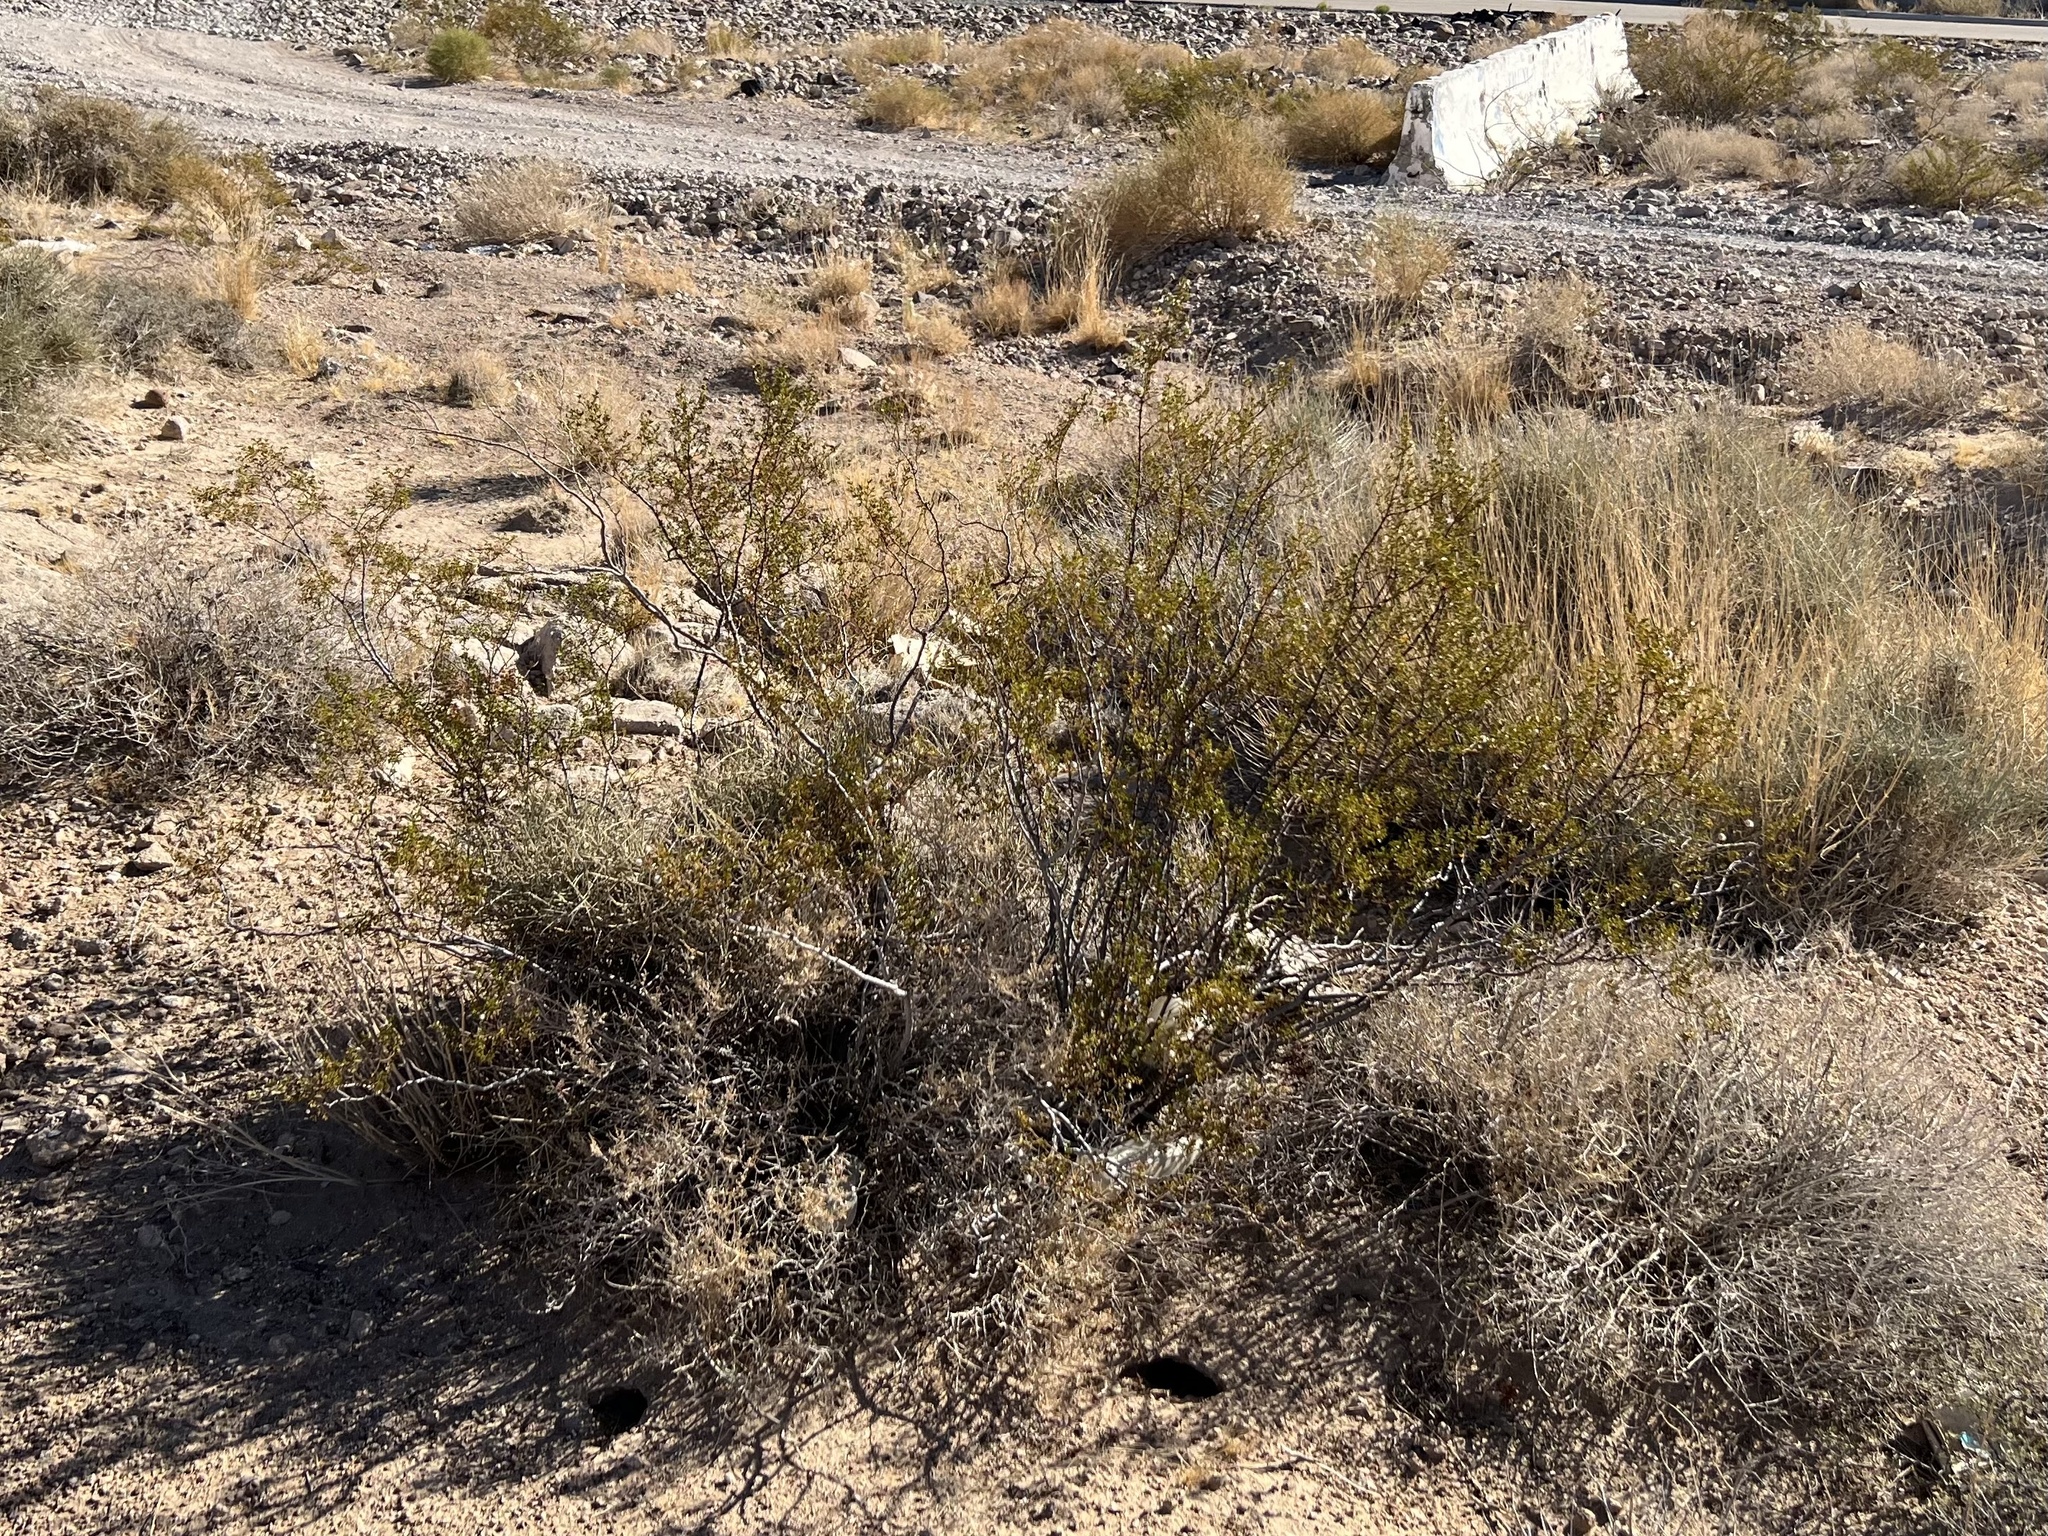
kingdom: Plantae
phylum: Tracheophyta
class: Magnoliopsida
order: Zygophyllales
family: Zygophyllaceae
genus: Larrea
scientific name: Larrea tridentata
